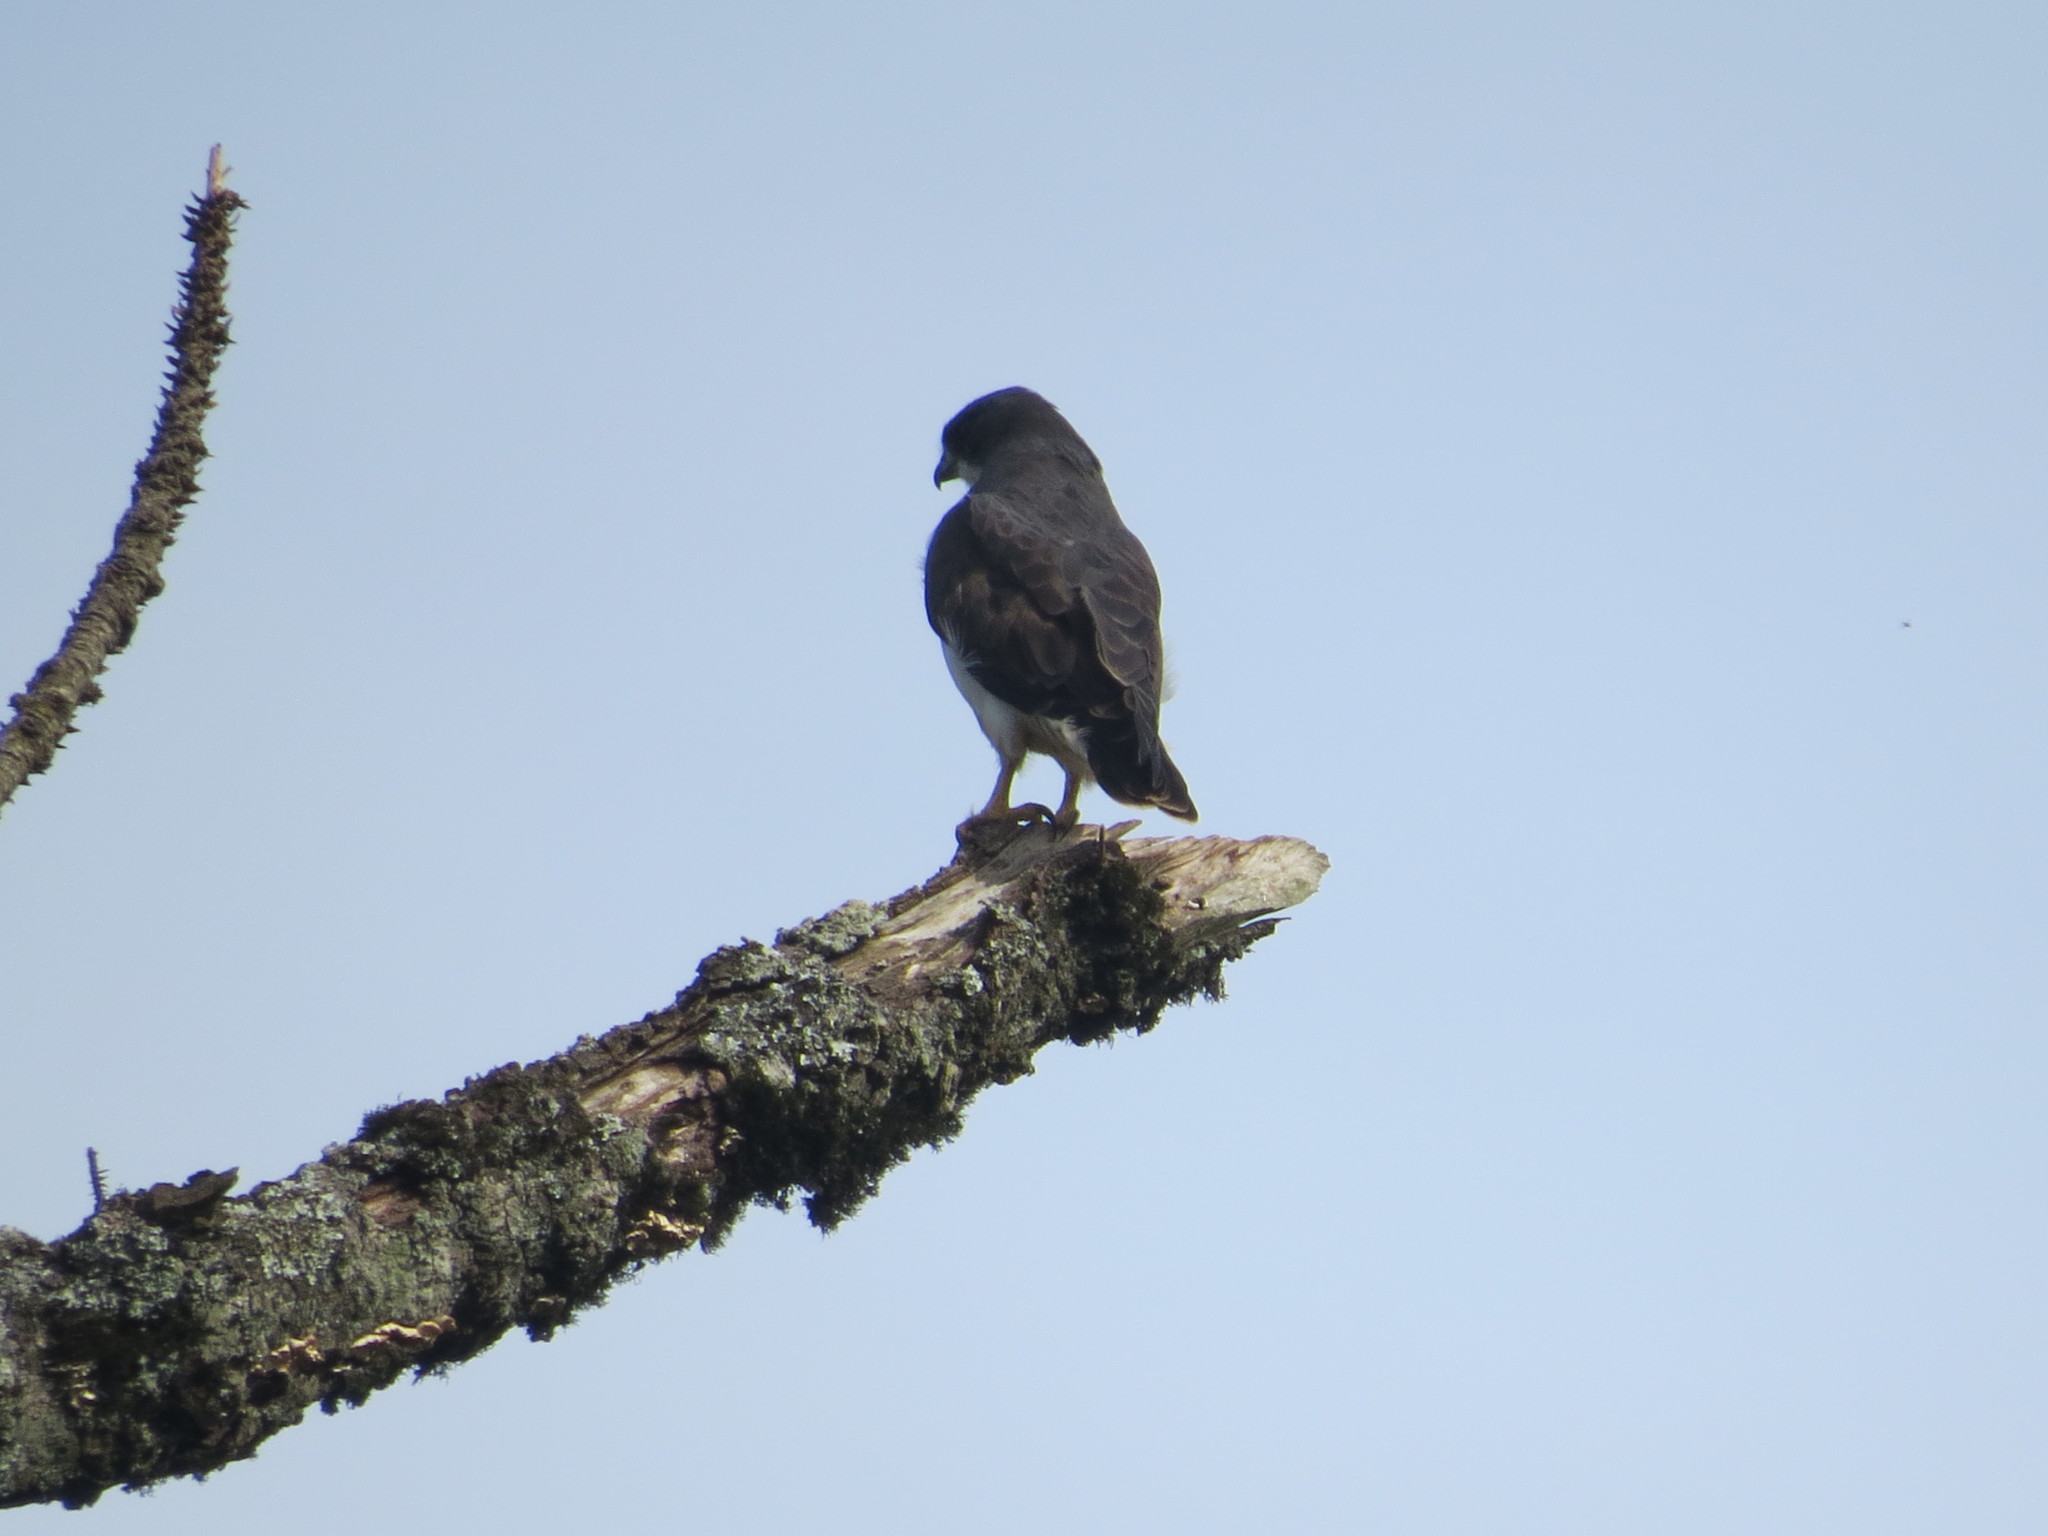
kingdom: Animalia
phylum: Chordata
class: Aves
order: Accipitriformes
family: Accipitridae
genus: Buteo
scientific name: Buteo brachyurus
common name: Short-tailed hawk
